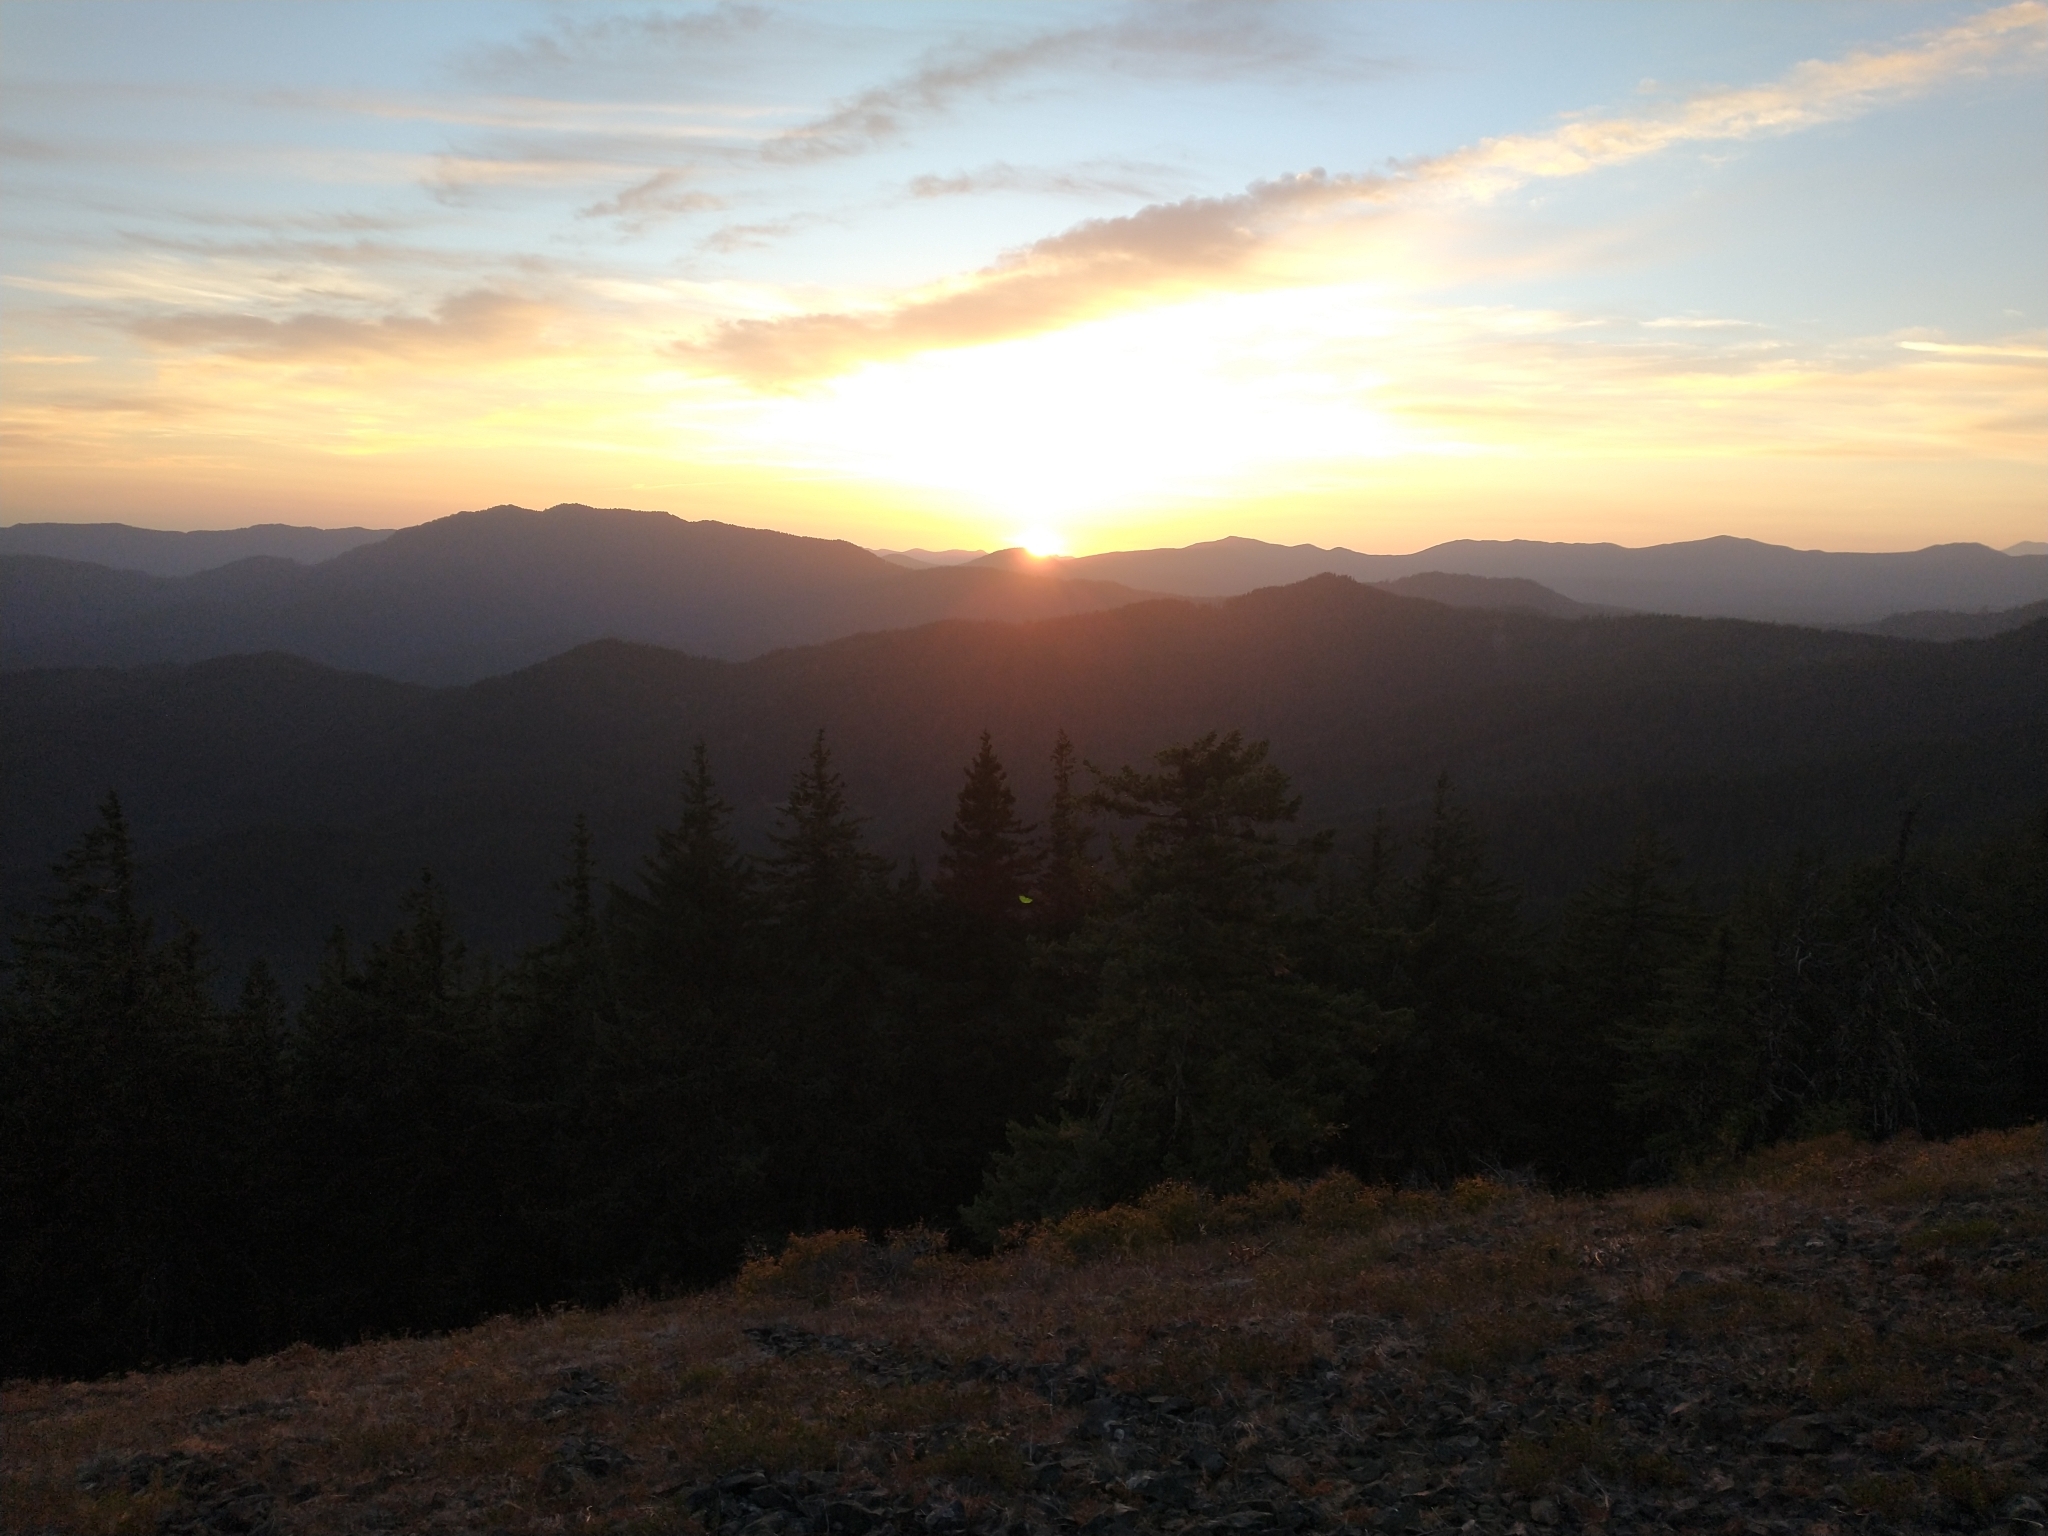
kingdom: Plantae
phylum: Tracheophyta
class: Pinopsida
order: Pinales
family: Pinaceae
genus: Pseudotsuga
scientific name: Pseudotsuga menziesii
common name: Douglas fir
